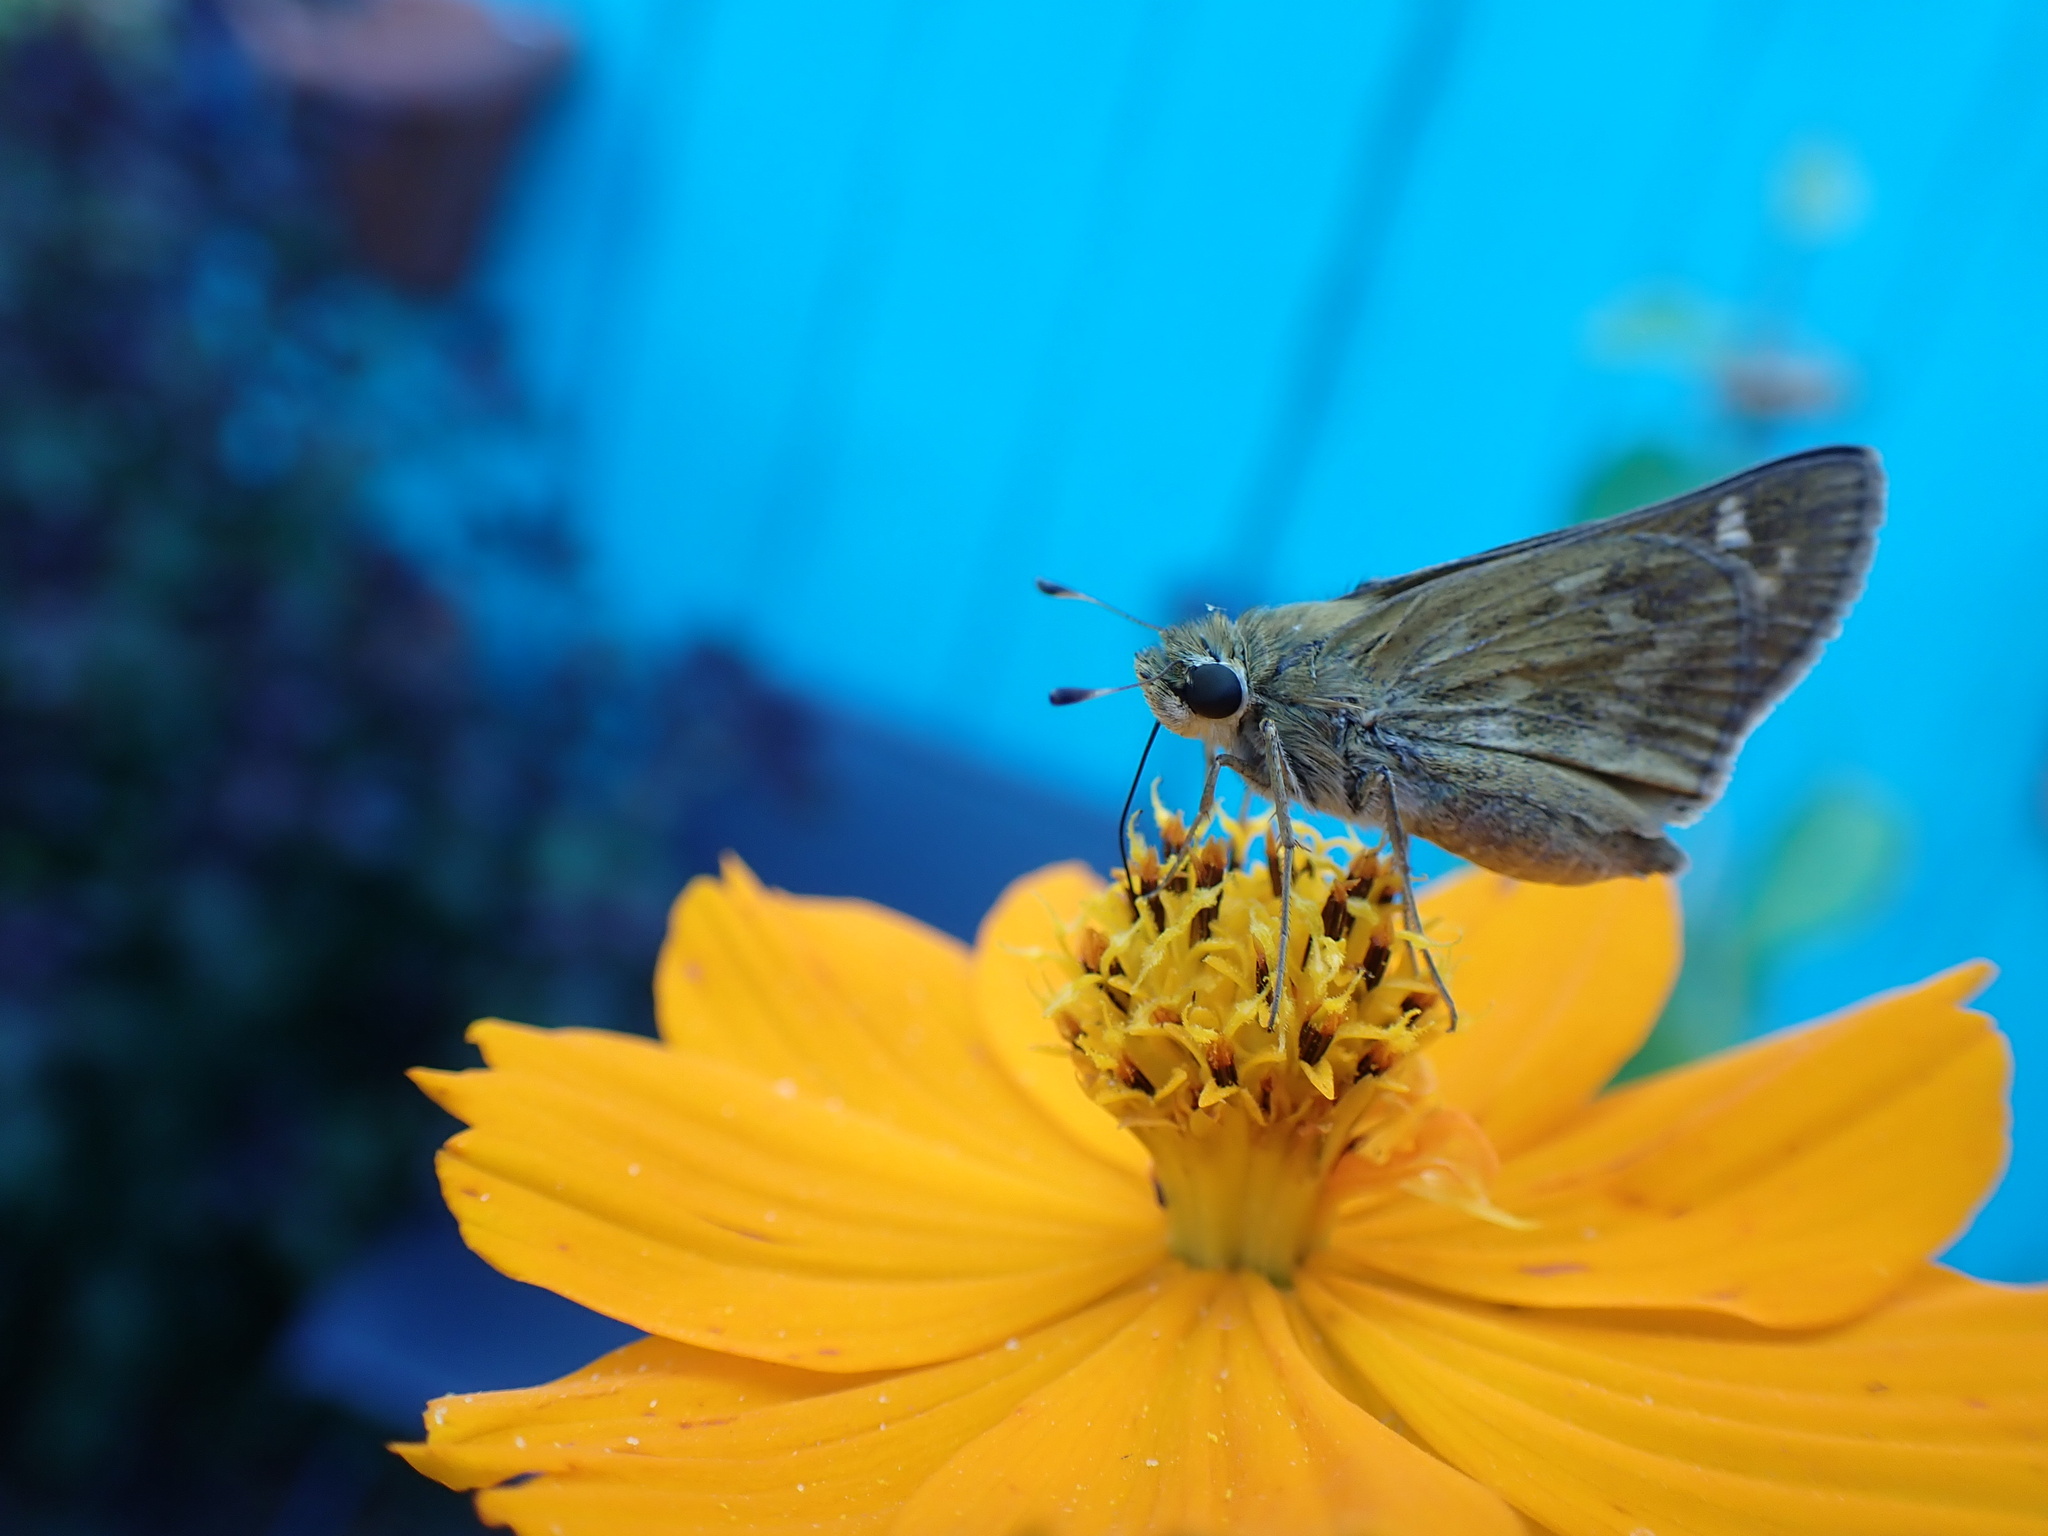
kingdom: Animalia
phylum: Arthropoda
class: Insecta
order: Lepidoptera
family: Hesperiidae
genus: Atalopedes
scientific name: Atalopedes
